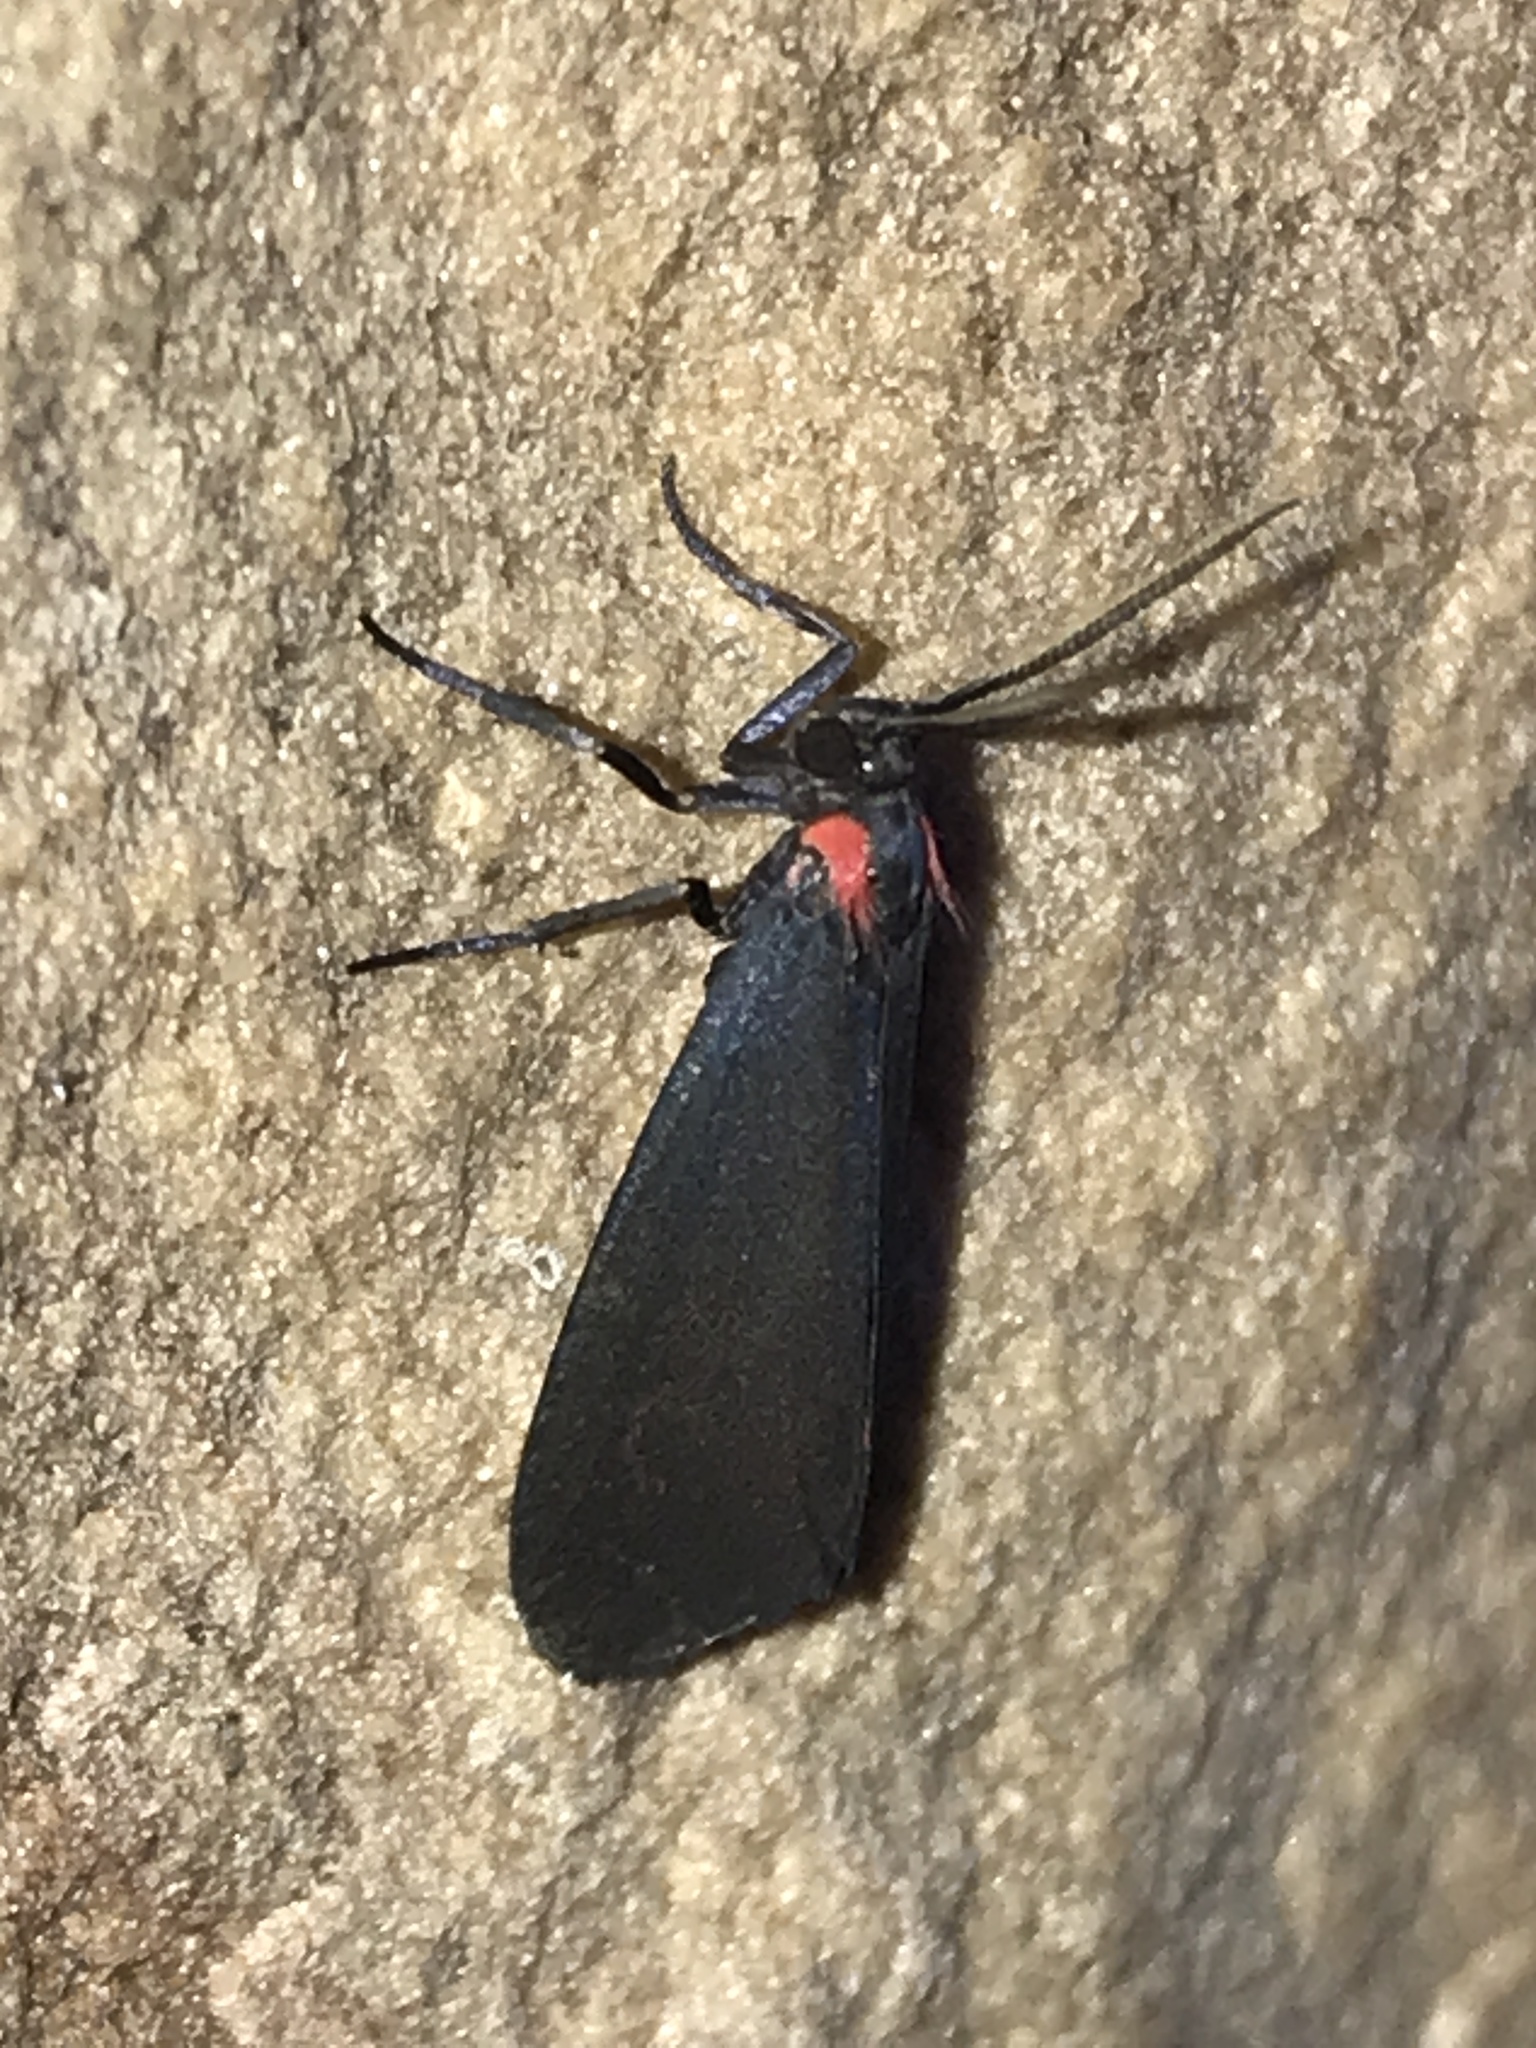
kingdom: Animalia
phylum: Arthropoda
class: Insecta
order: Lepidoptera
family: Erebidae
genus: Lycomorpha
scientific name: Lycomorpha splendens
